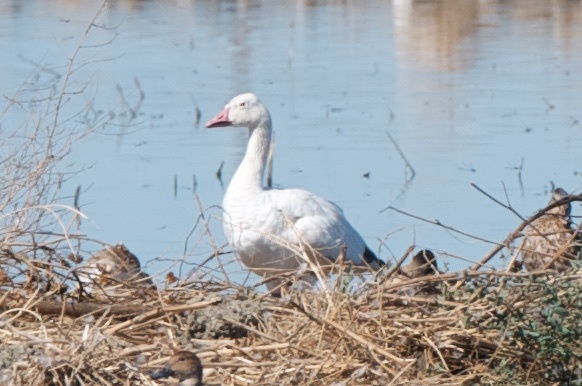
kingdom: Animalia
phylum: Chordata
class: Aves
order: Anseriformes
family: Anatidae
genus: Anser
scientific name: Anser caerulescens
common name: Snow goose
